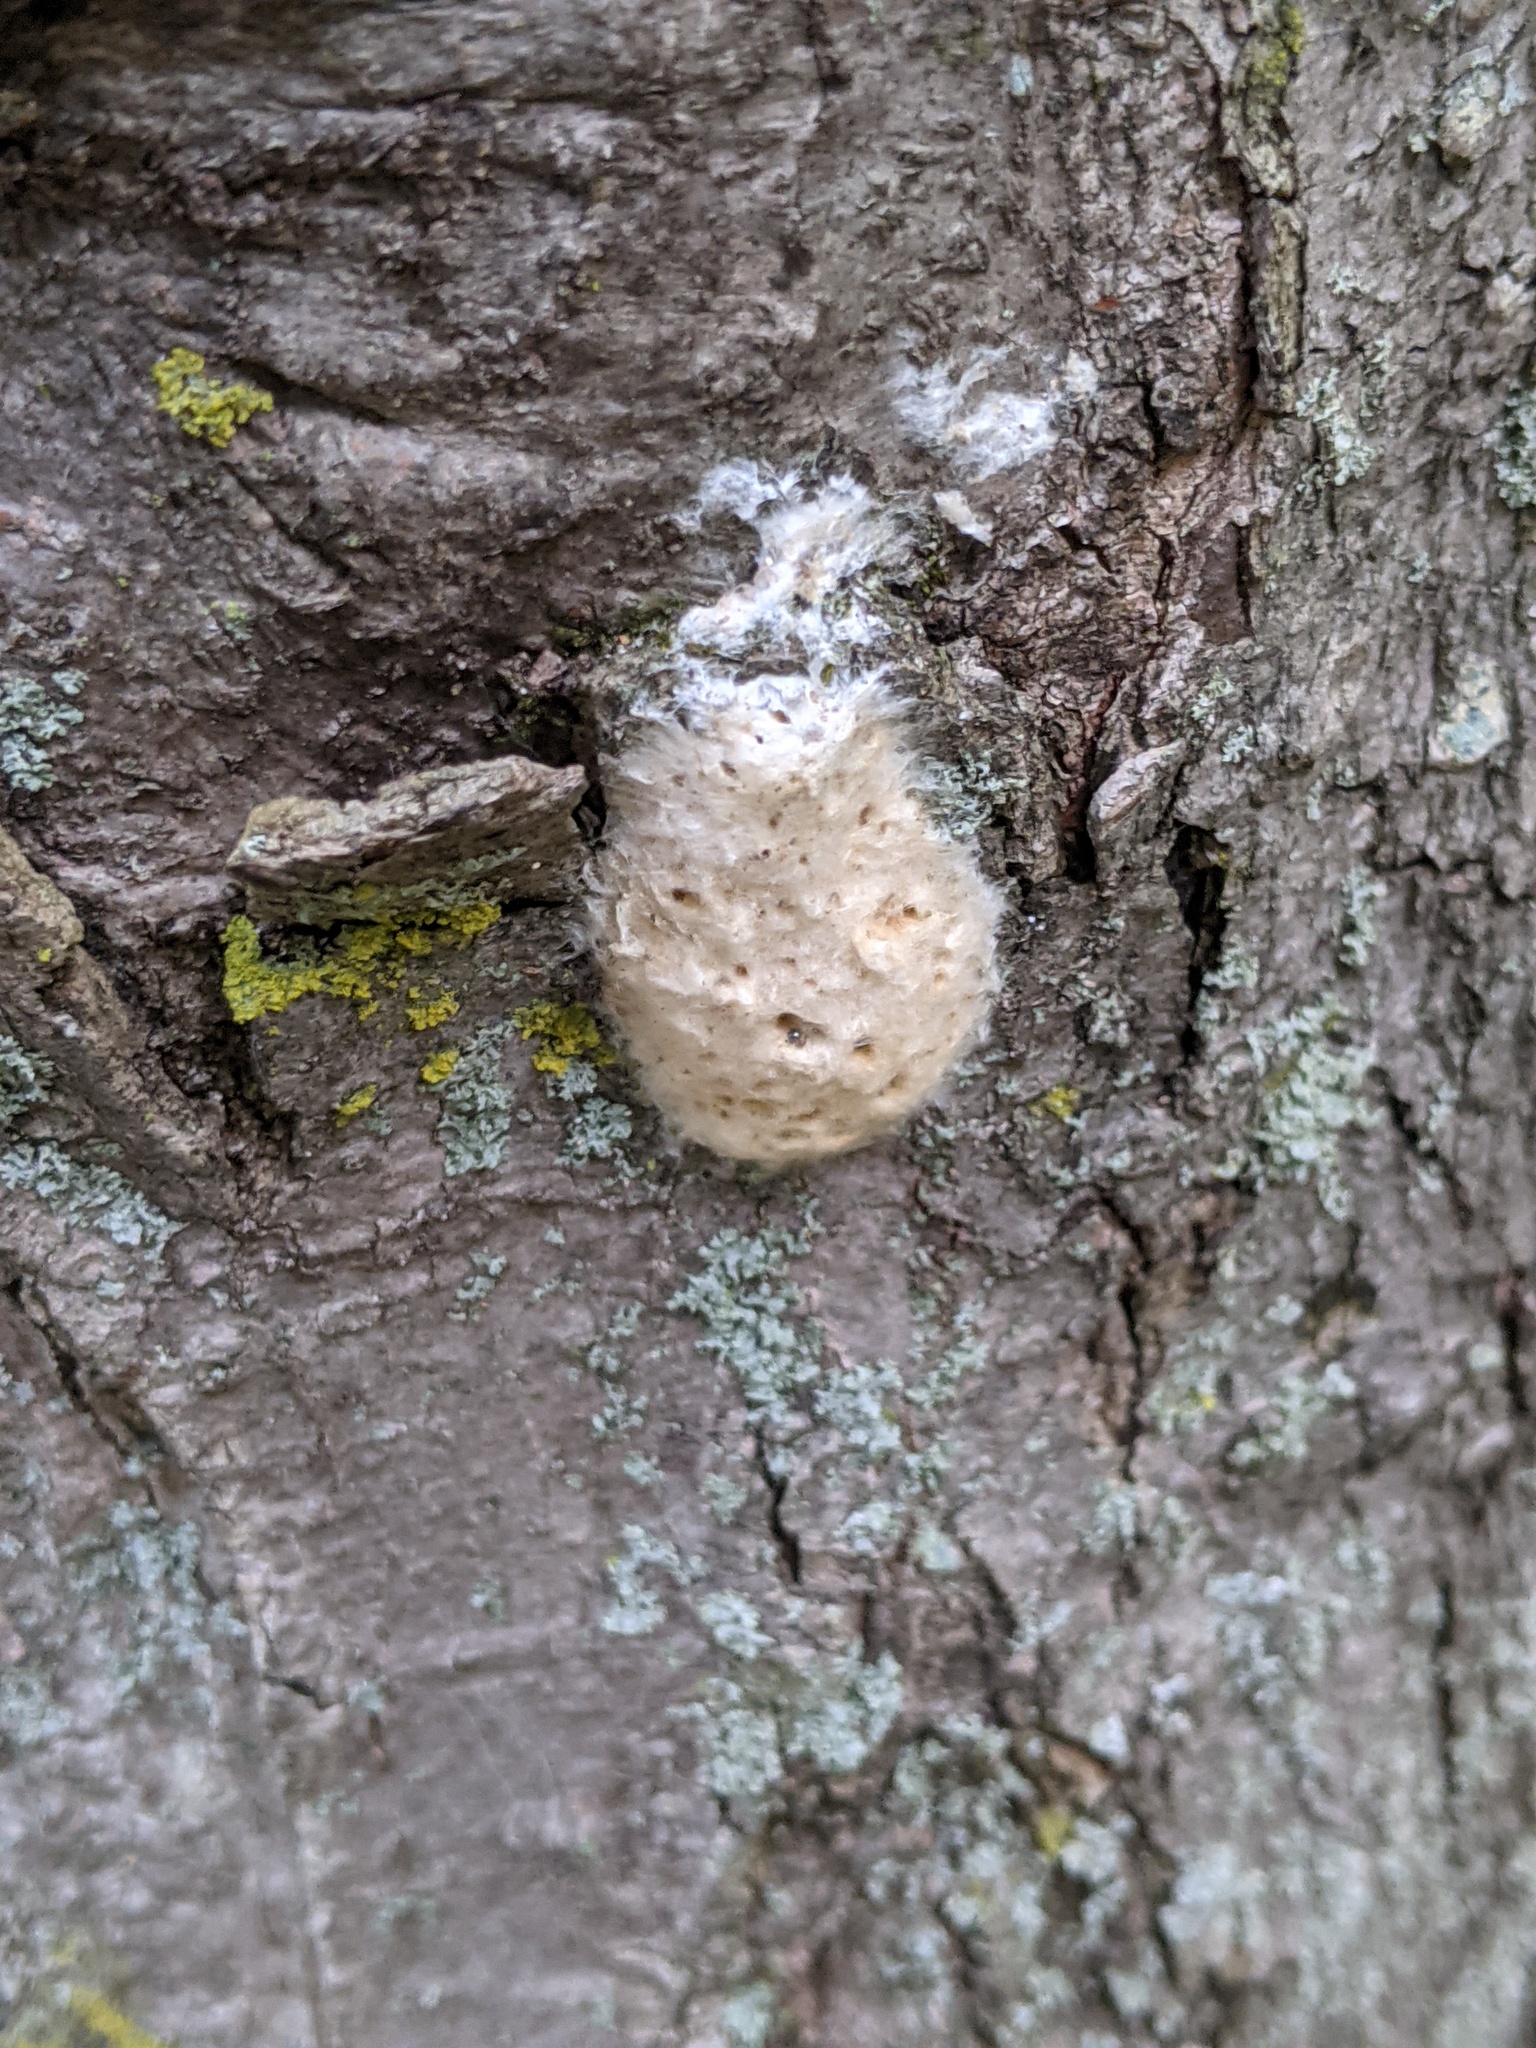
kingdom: Animalia
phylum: Arthropoda
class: Insecta
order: Lepidoptera
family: Erebidae
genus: Lymantria
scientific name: Lymantria dispar
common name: Gypsy moth
